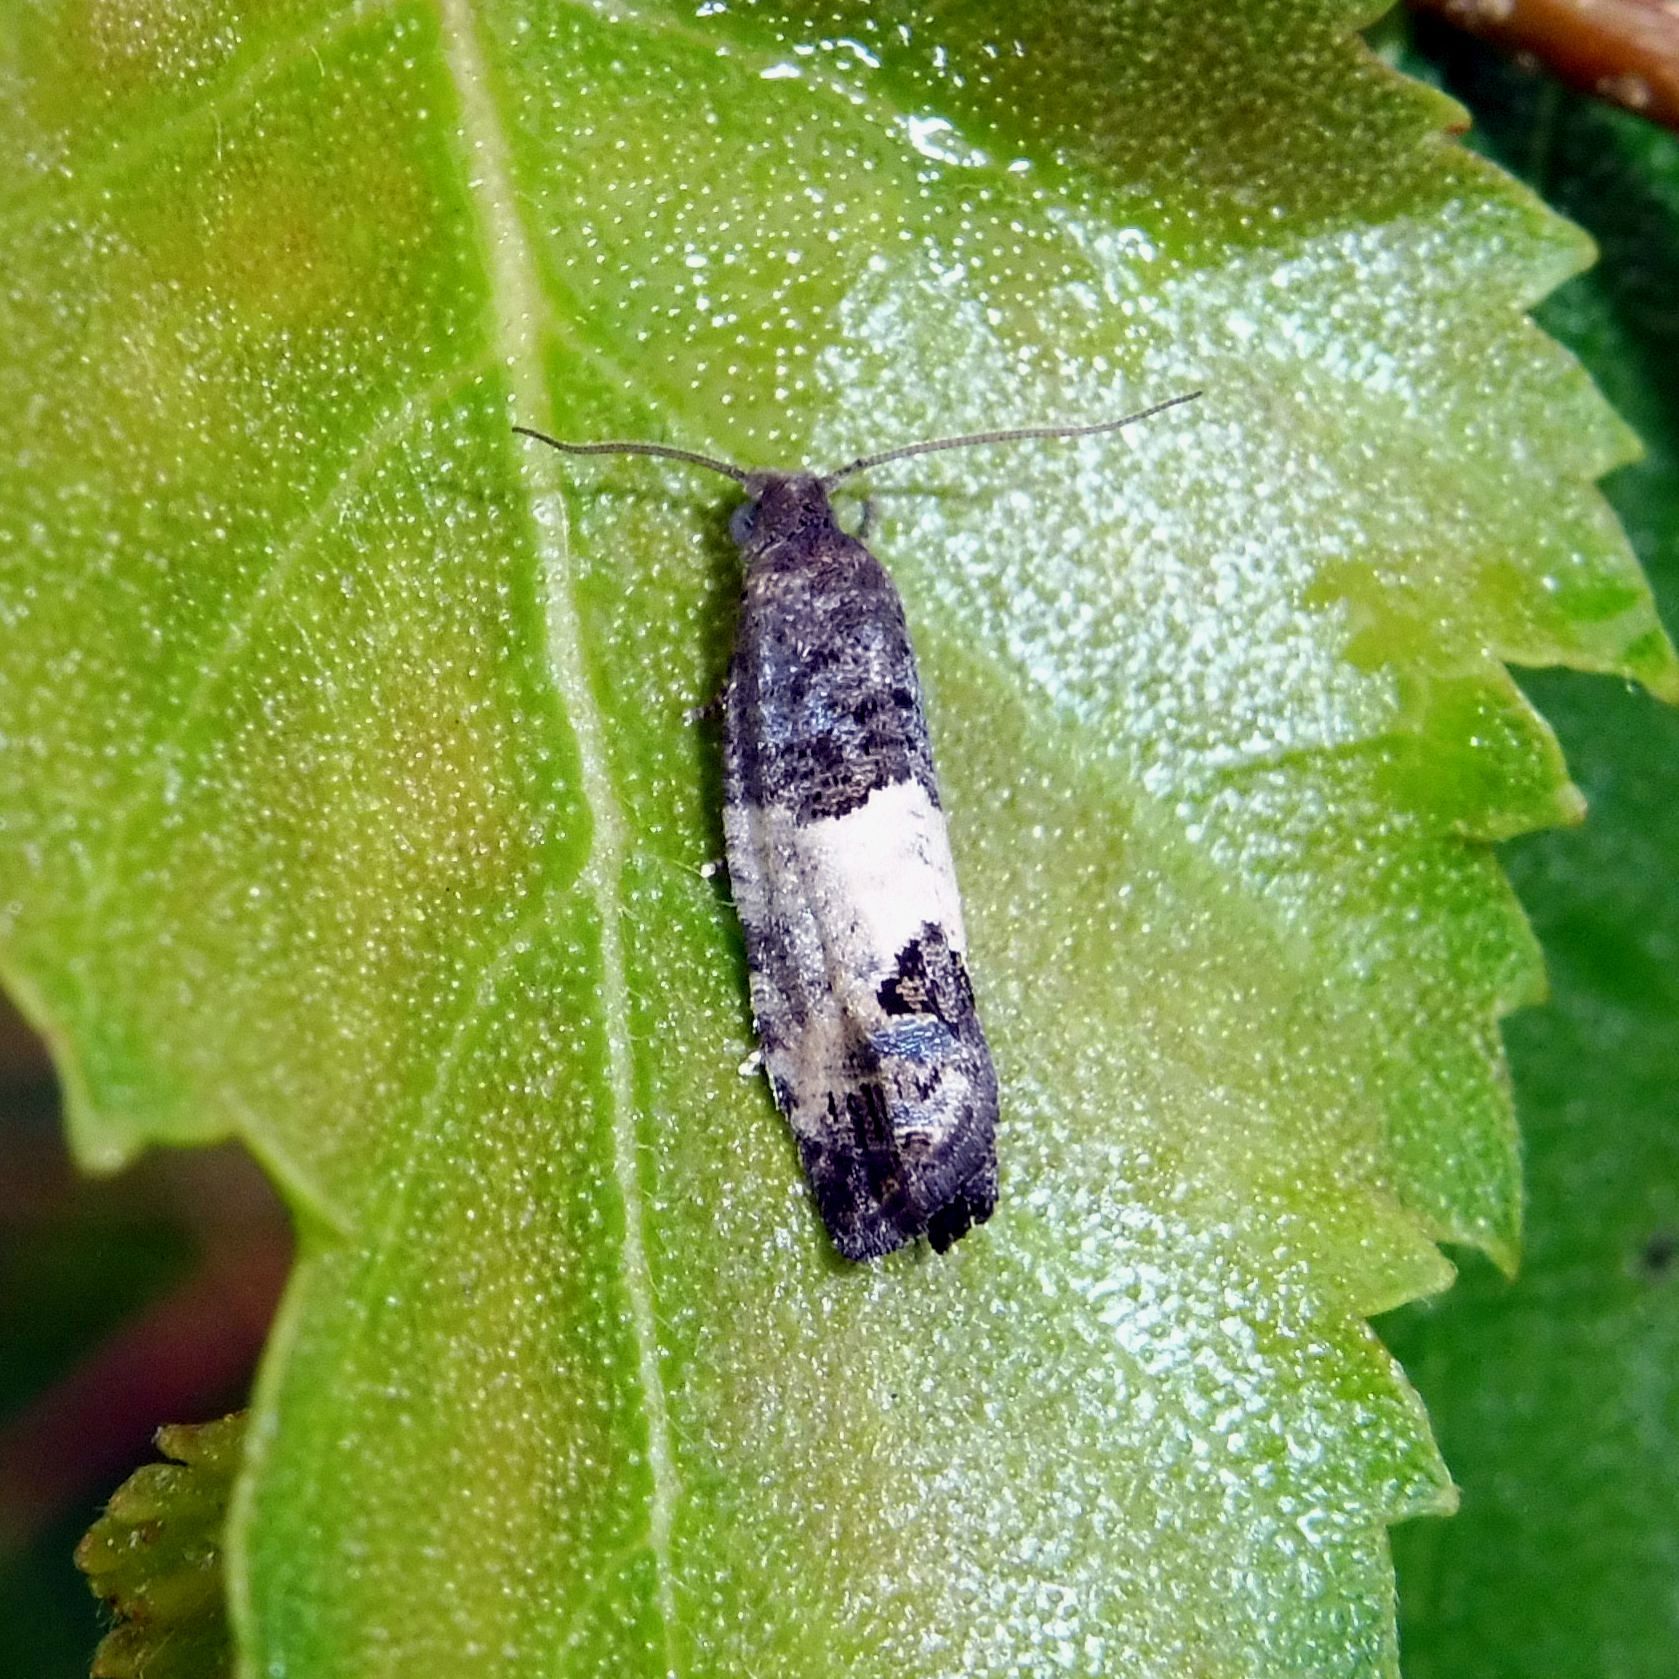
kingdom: Animalia
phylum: Arthropoda
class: Insecta
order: Lepidoptera
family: Tortricidae
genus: Spilonota
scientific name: Spilonota ocellana
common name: Bud moth
